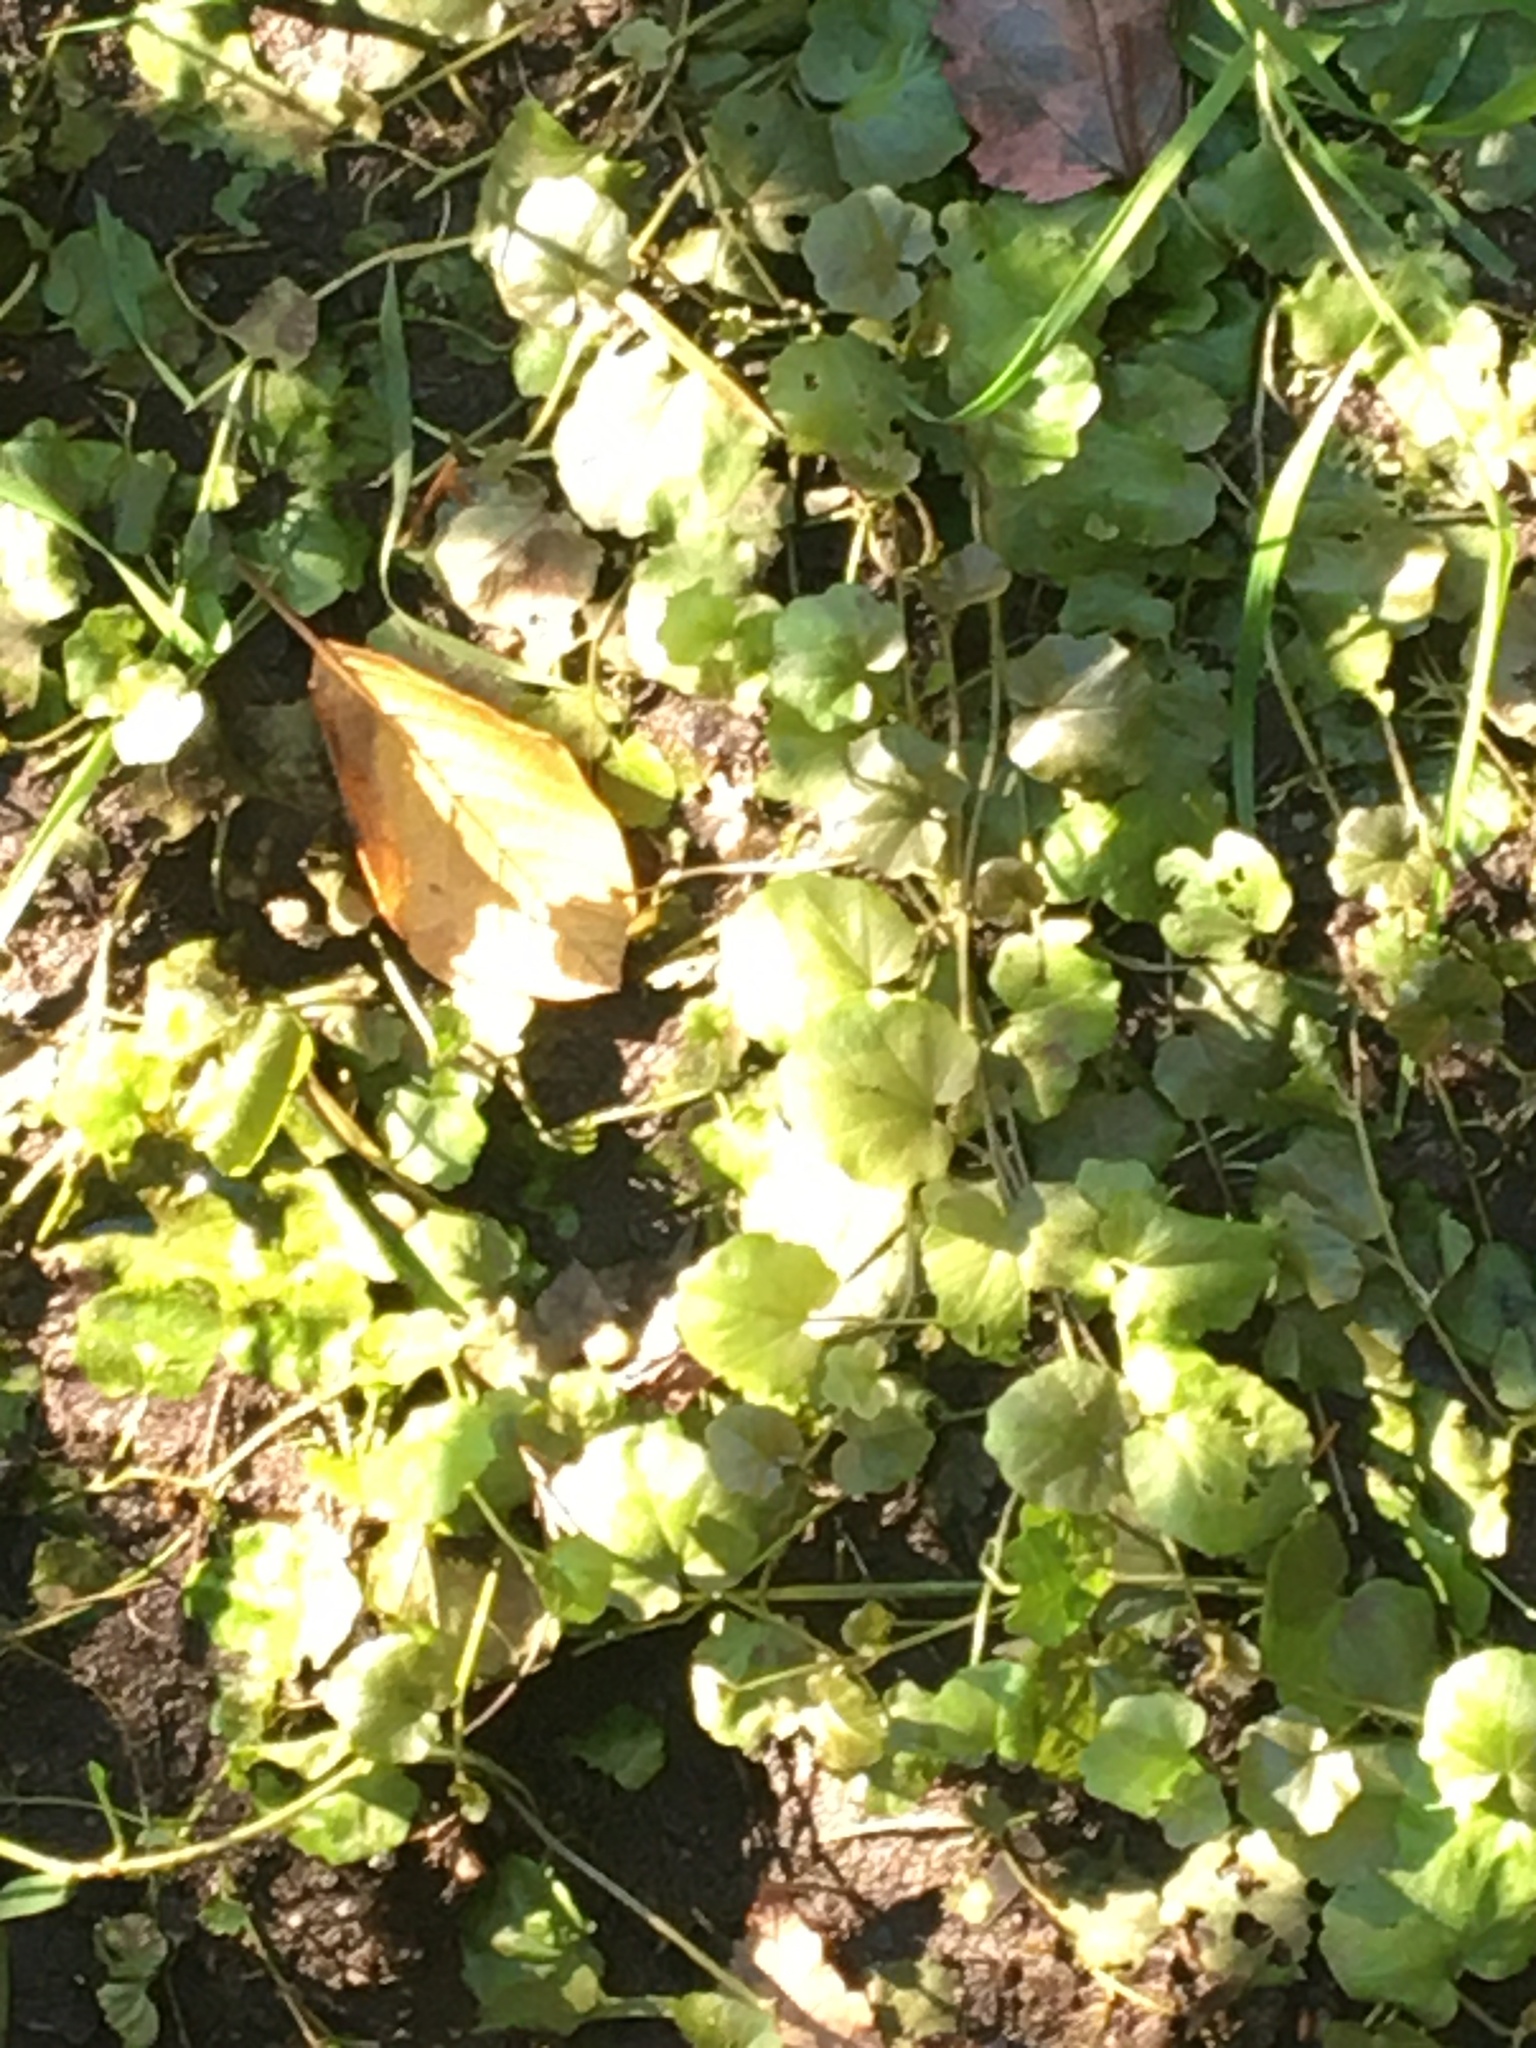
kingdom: Plantae
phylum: Tracheophyta
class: Magnoliopsida
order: Lamiales
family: Lamiaceae
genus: Glechoma
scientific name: Glechoma hederacea
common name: Ground ivy
